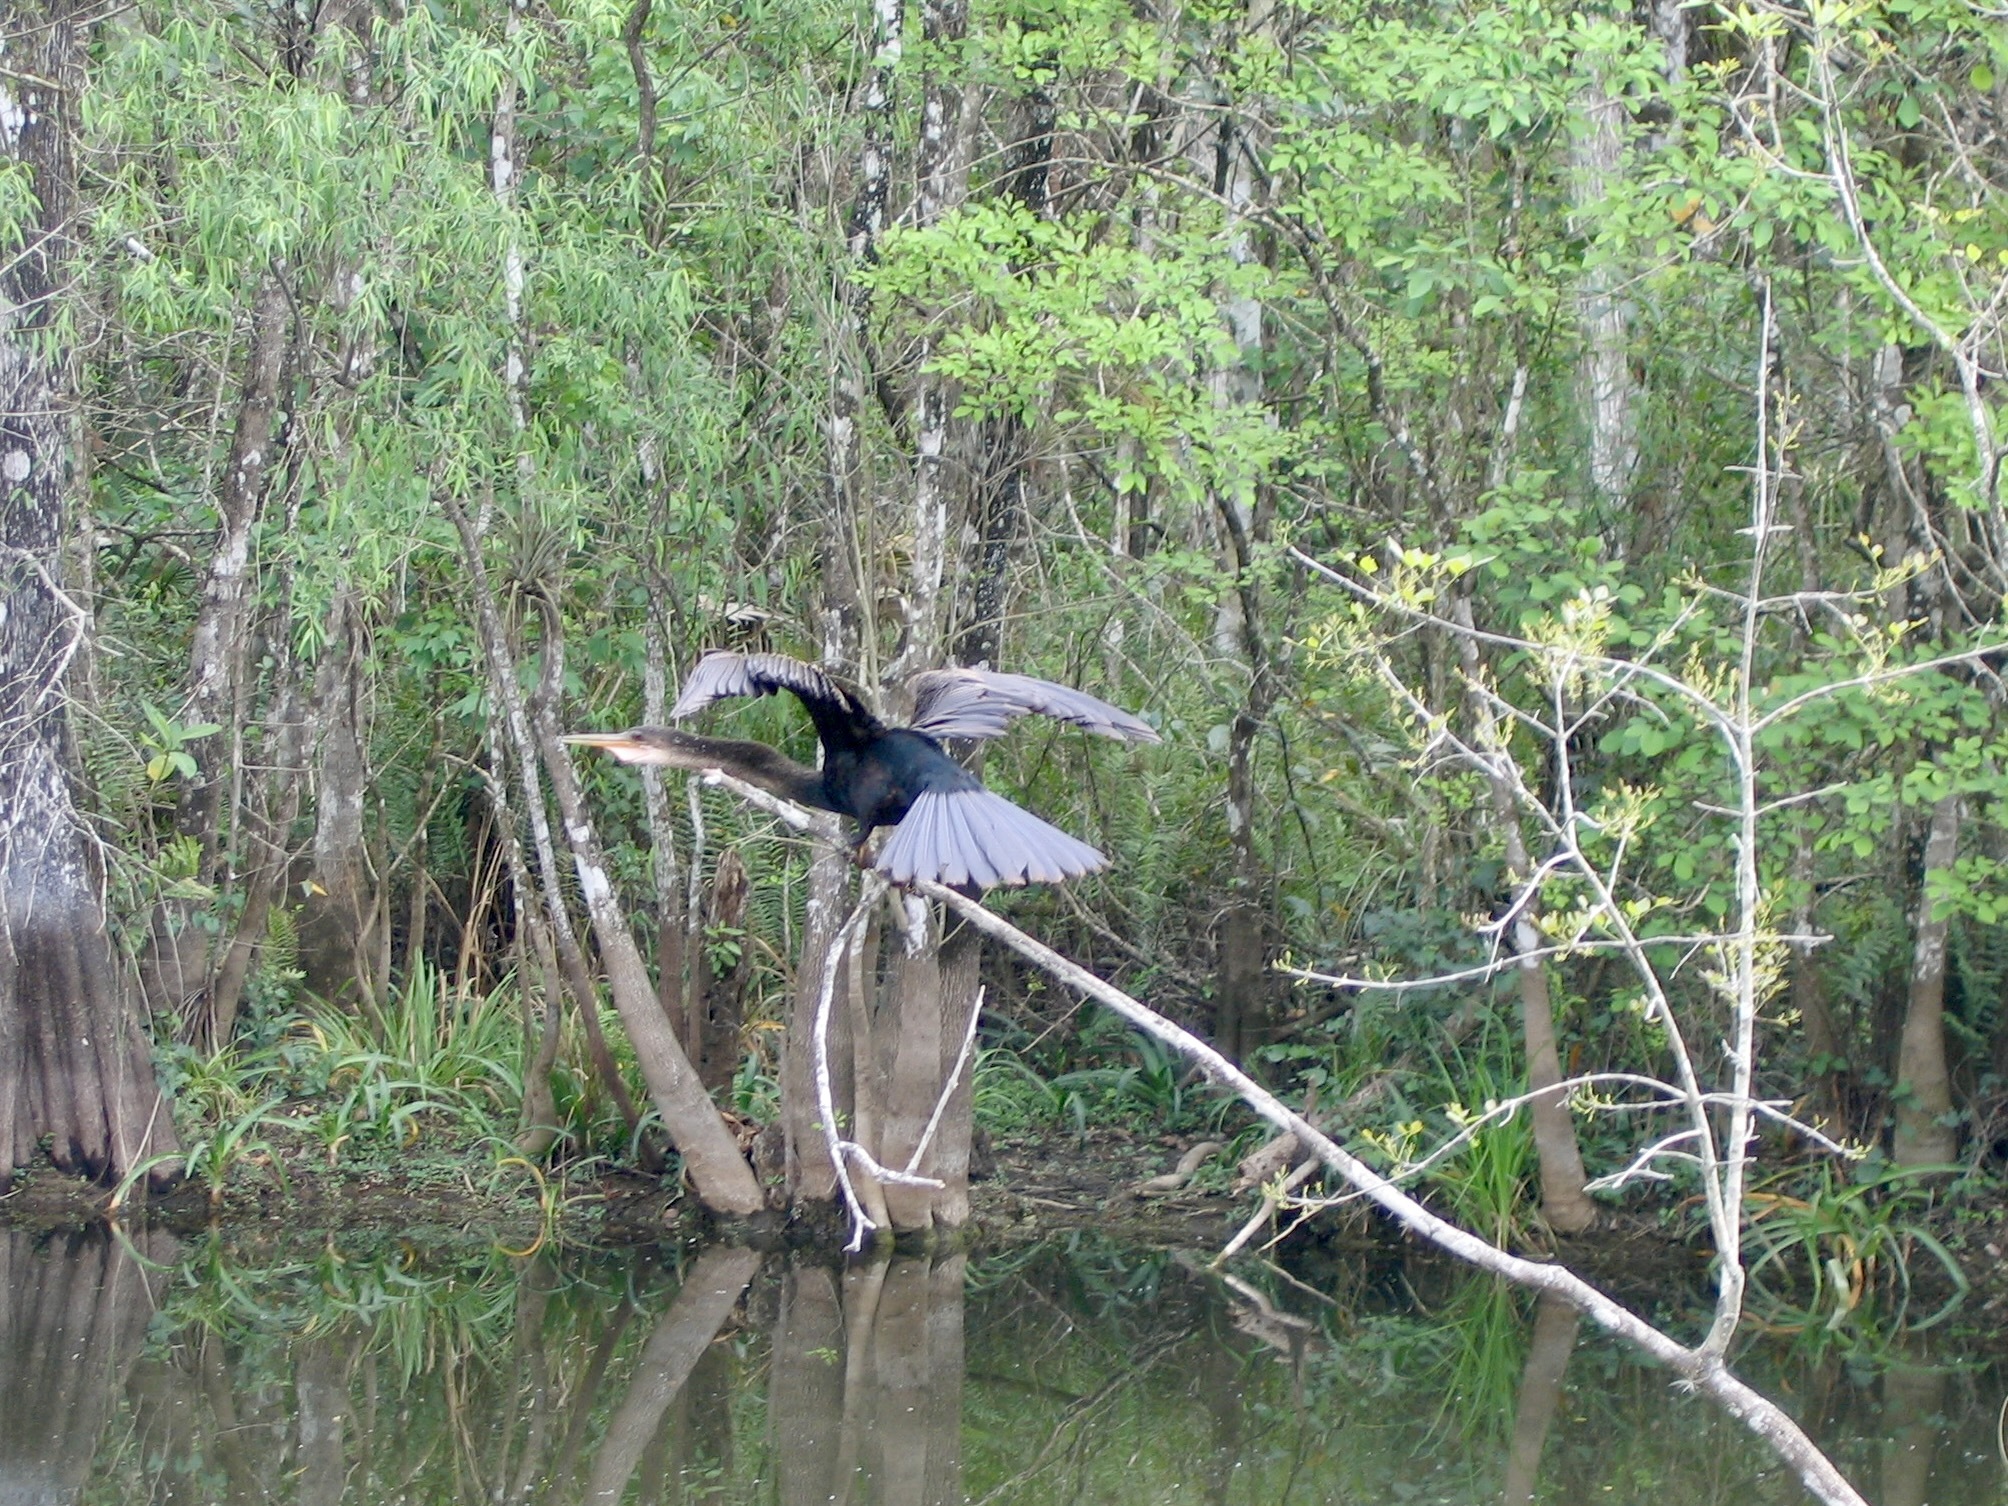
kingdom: Animalia
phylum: Chordata
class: Aves
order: Suliformes
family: Anhingidae
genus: Anhinga
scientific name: Anhinga anhinga
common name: Anhinga
